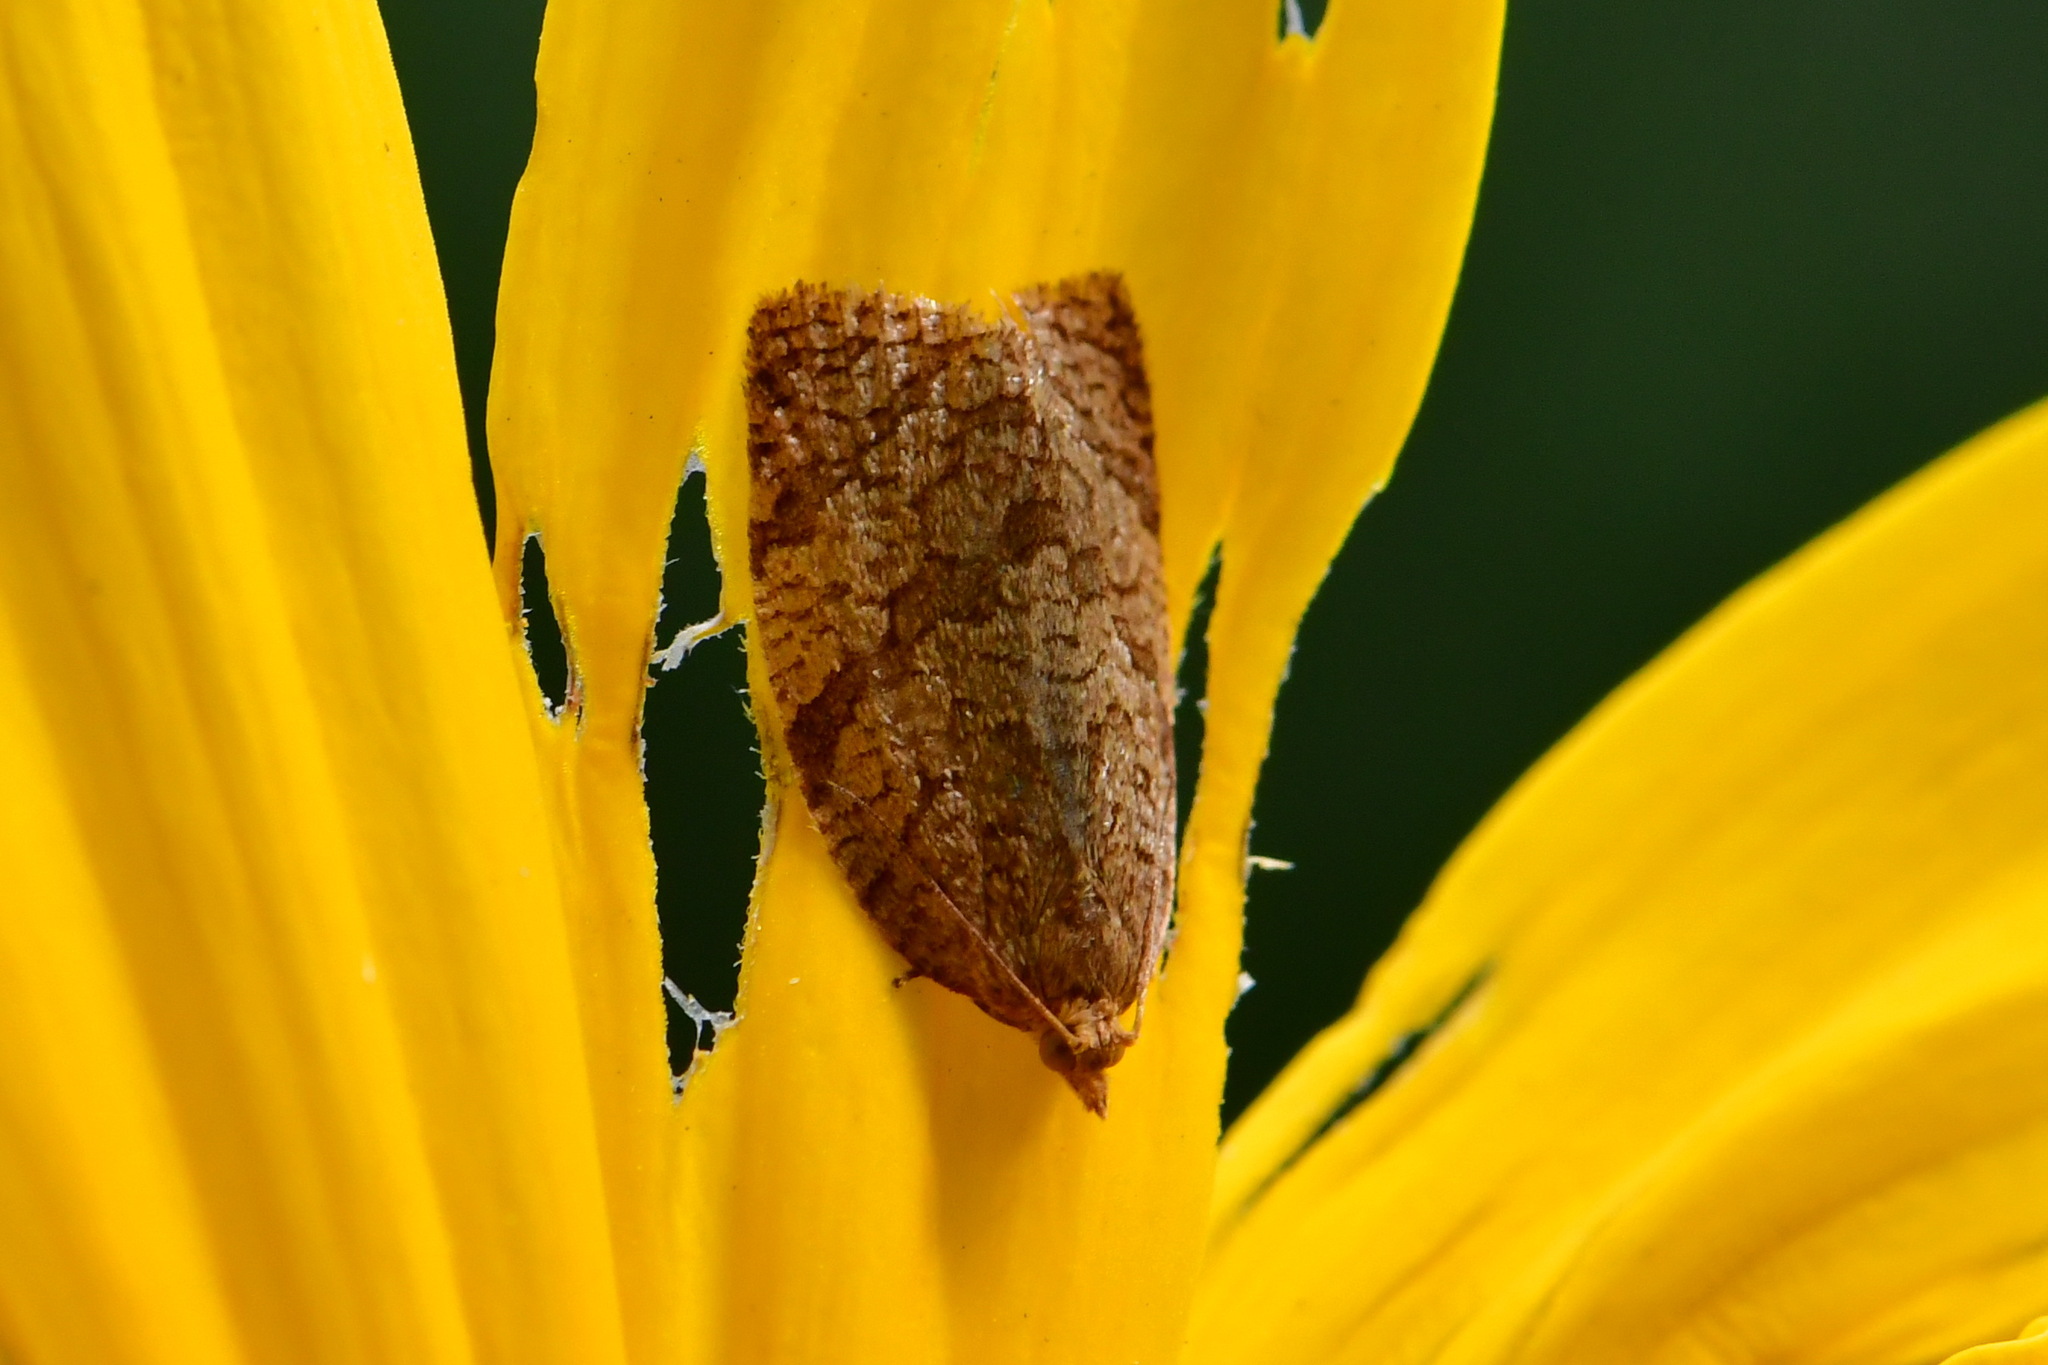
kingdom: Animalia
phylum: Arthropoda
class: Insecta
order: Lepidoptera
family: Tortricidae
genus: Adoxophyes
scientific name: Adoxophyes orana
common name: Summer fruit tortrix
